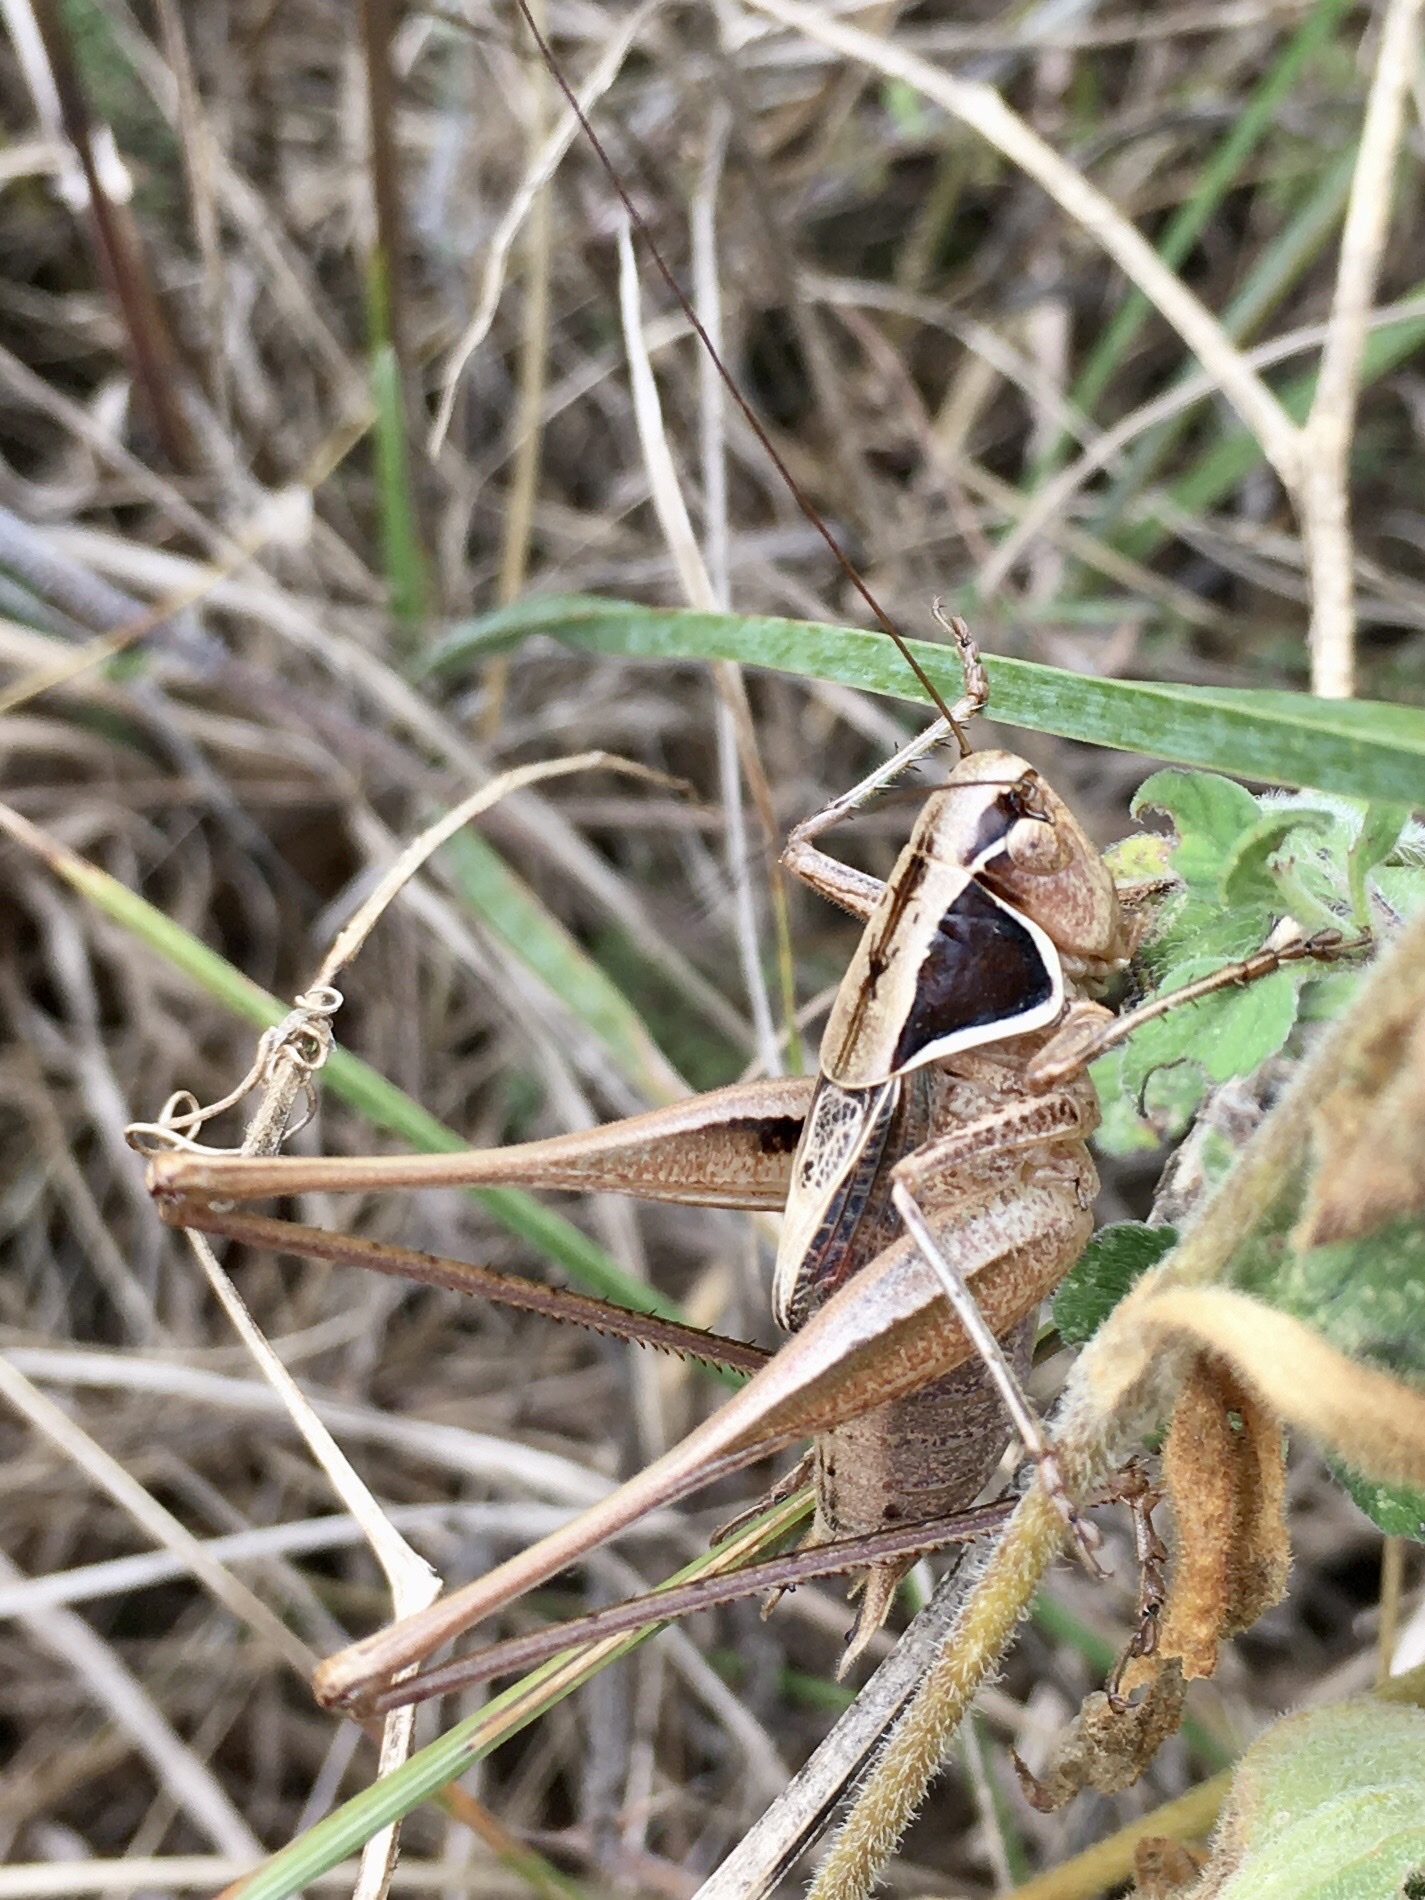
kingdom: Animalia
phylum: Arthropoda
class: Insecta
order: Orthoptera
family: Tettigoniidae
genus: Sepiana
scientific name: Sepiana sepium
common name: Sepia bush-cricket
